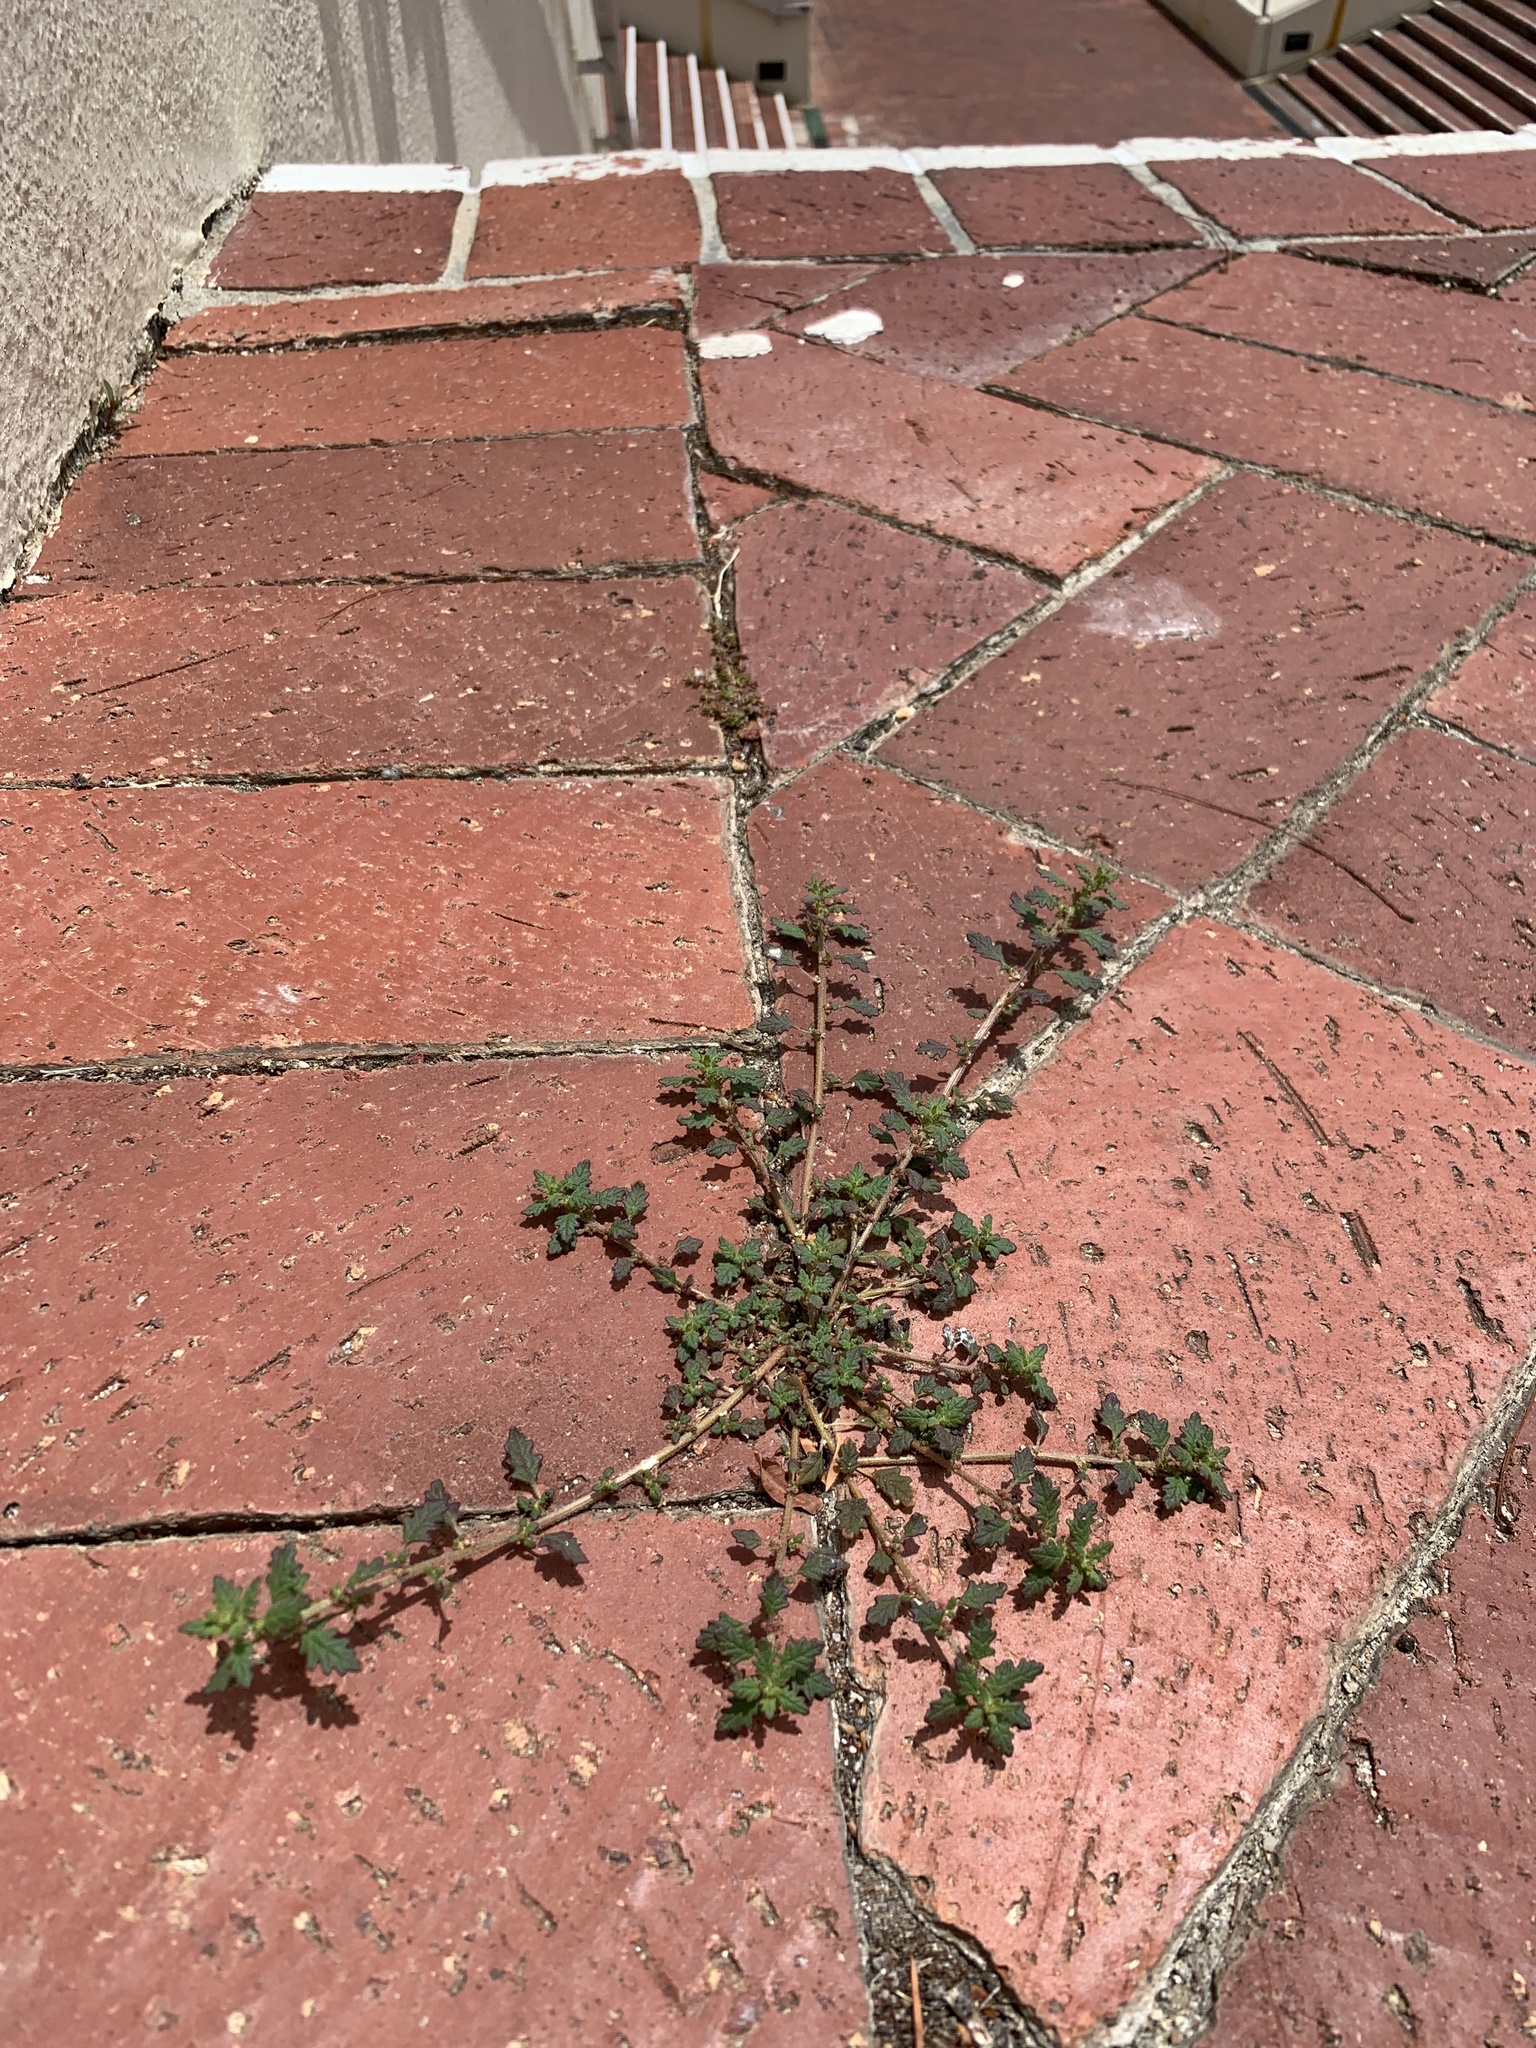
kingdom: Plantae
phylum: Tracheophyta
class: Magnoliopsida
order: Caryophyllales
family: Amaranthaceae
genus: Dysphania
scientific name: Dysphania pumilio
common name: Clammy goosefoot
